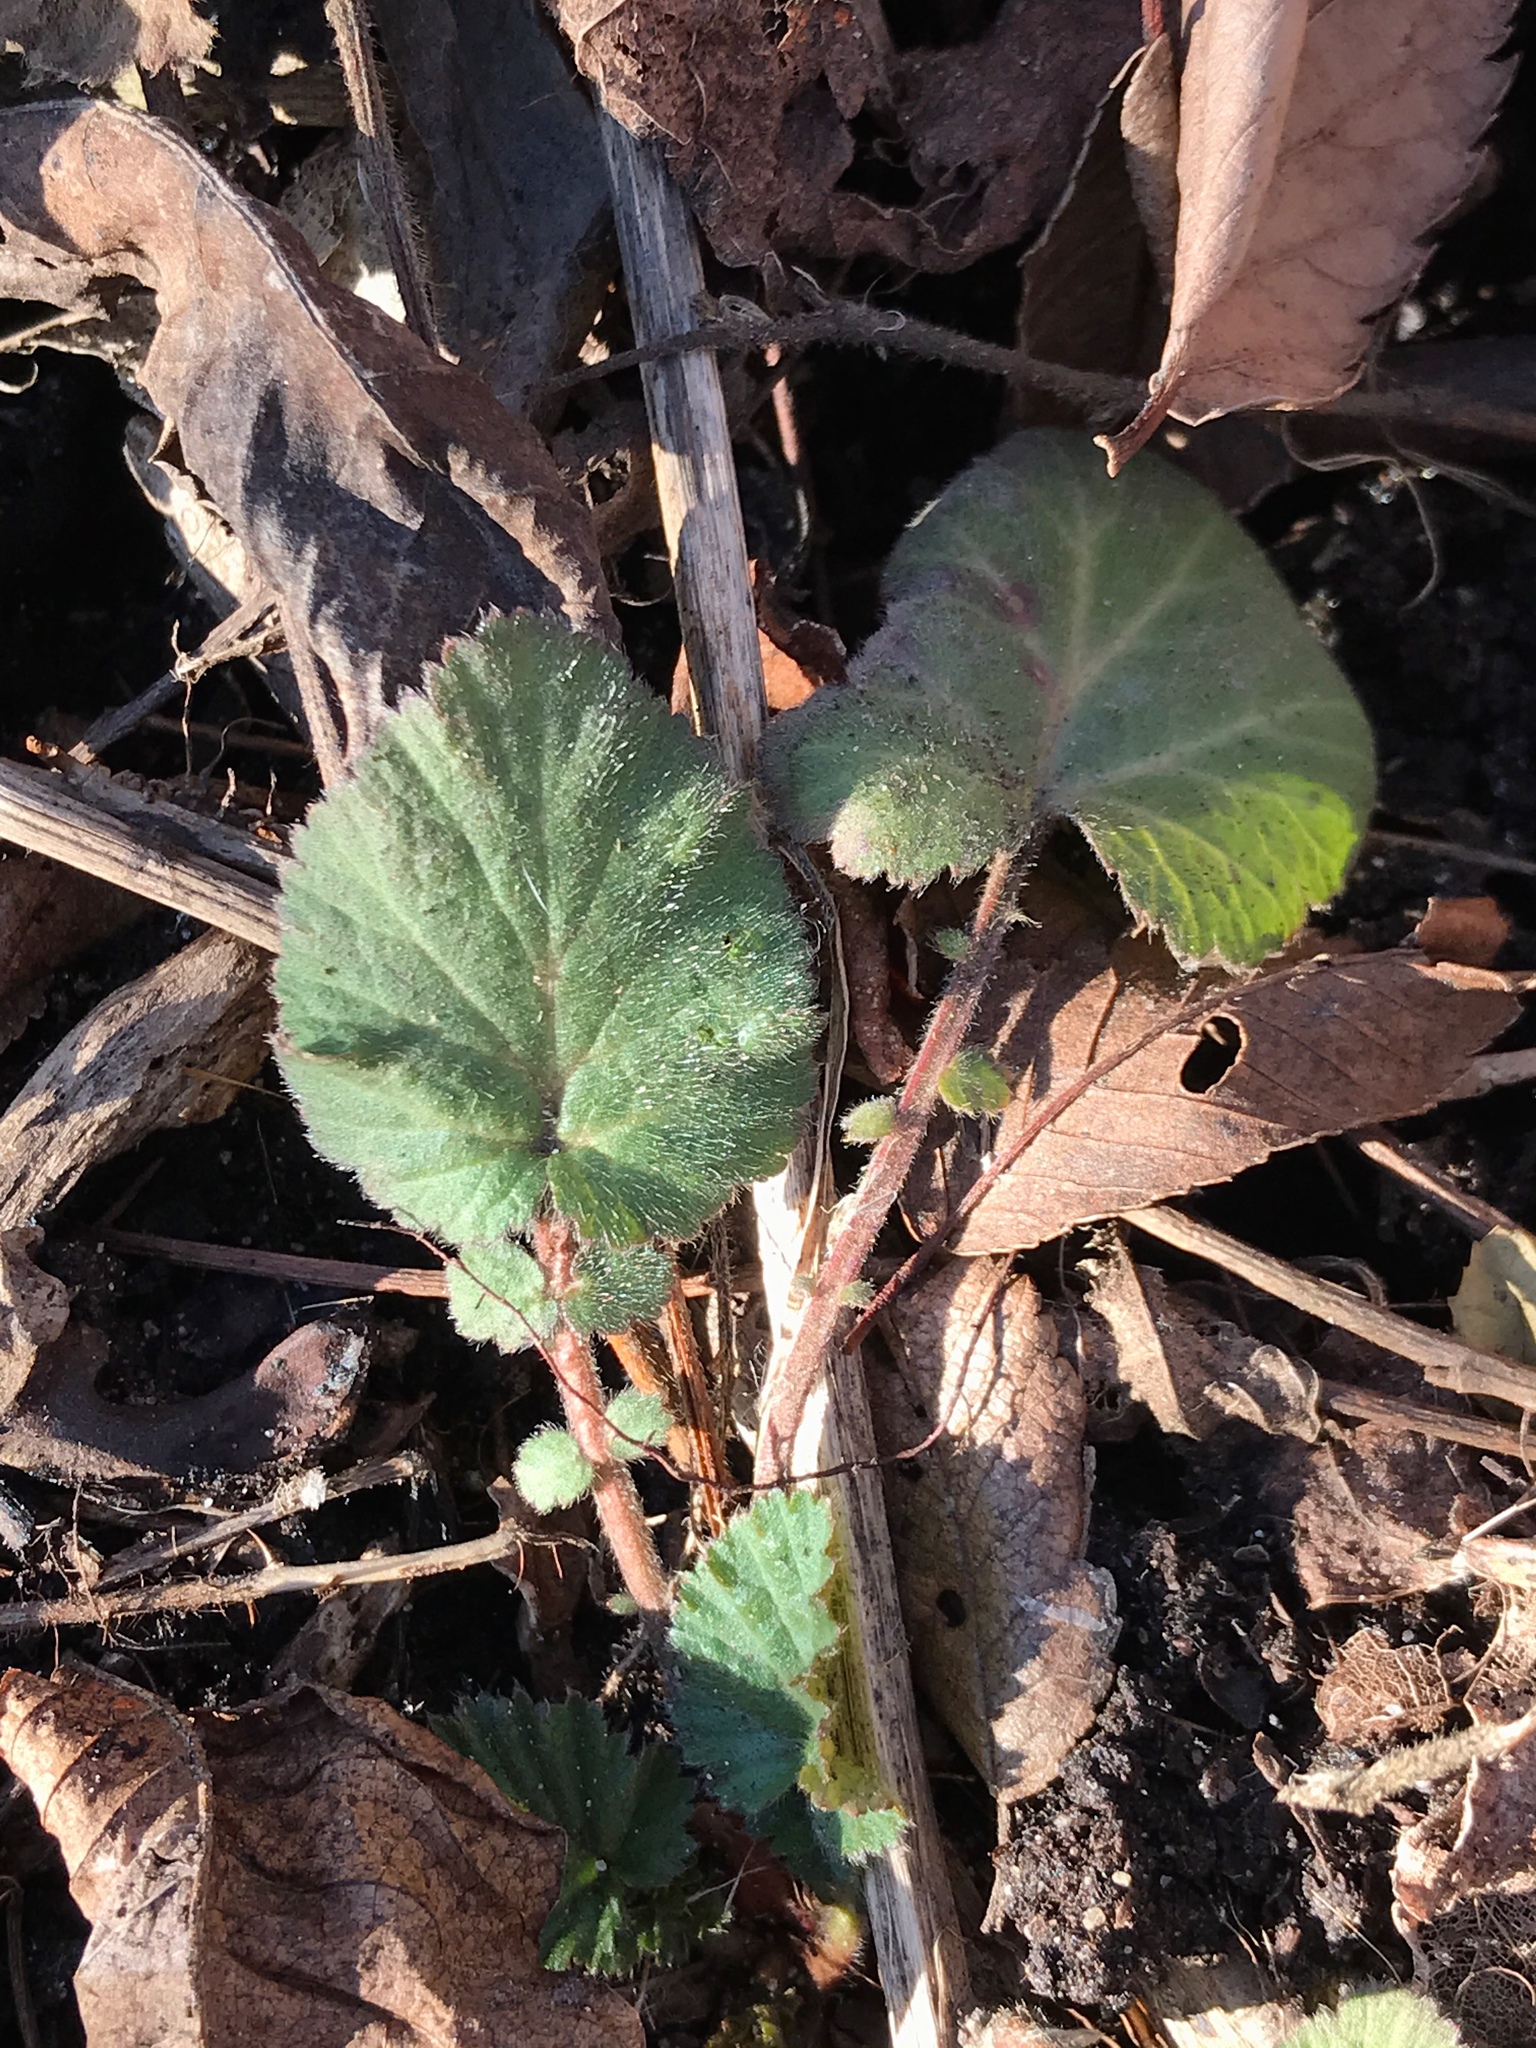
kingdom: Plantae
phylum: Tracheophyta
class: Magnoliopsida
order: Rosales
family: Rosaceae
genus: Geum
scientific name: Geum canadense
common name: White avens
